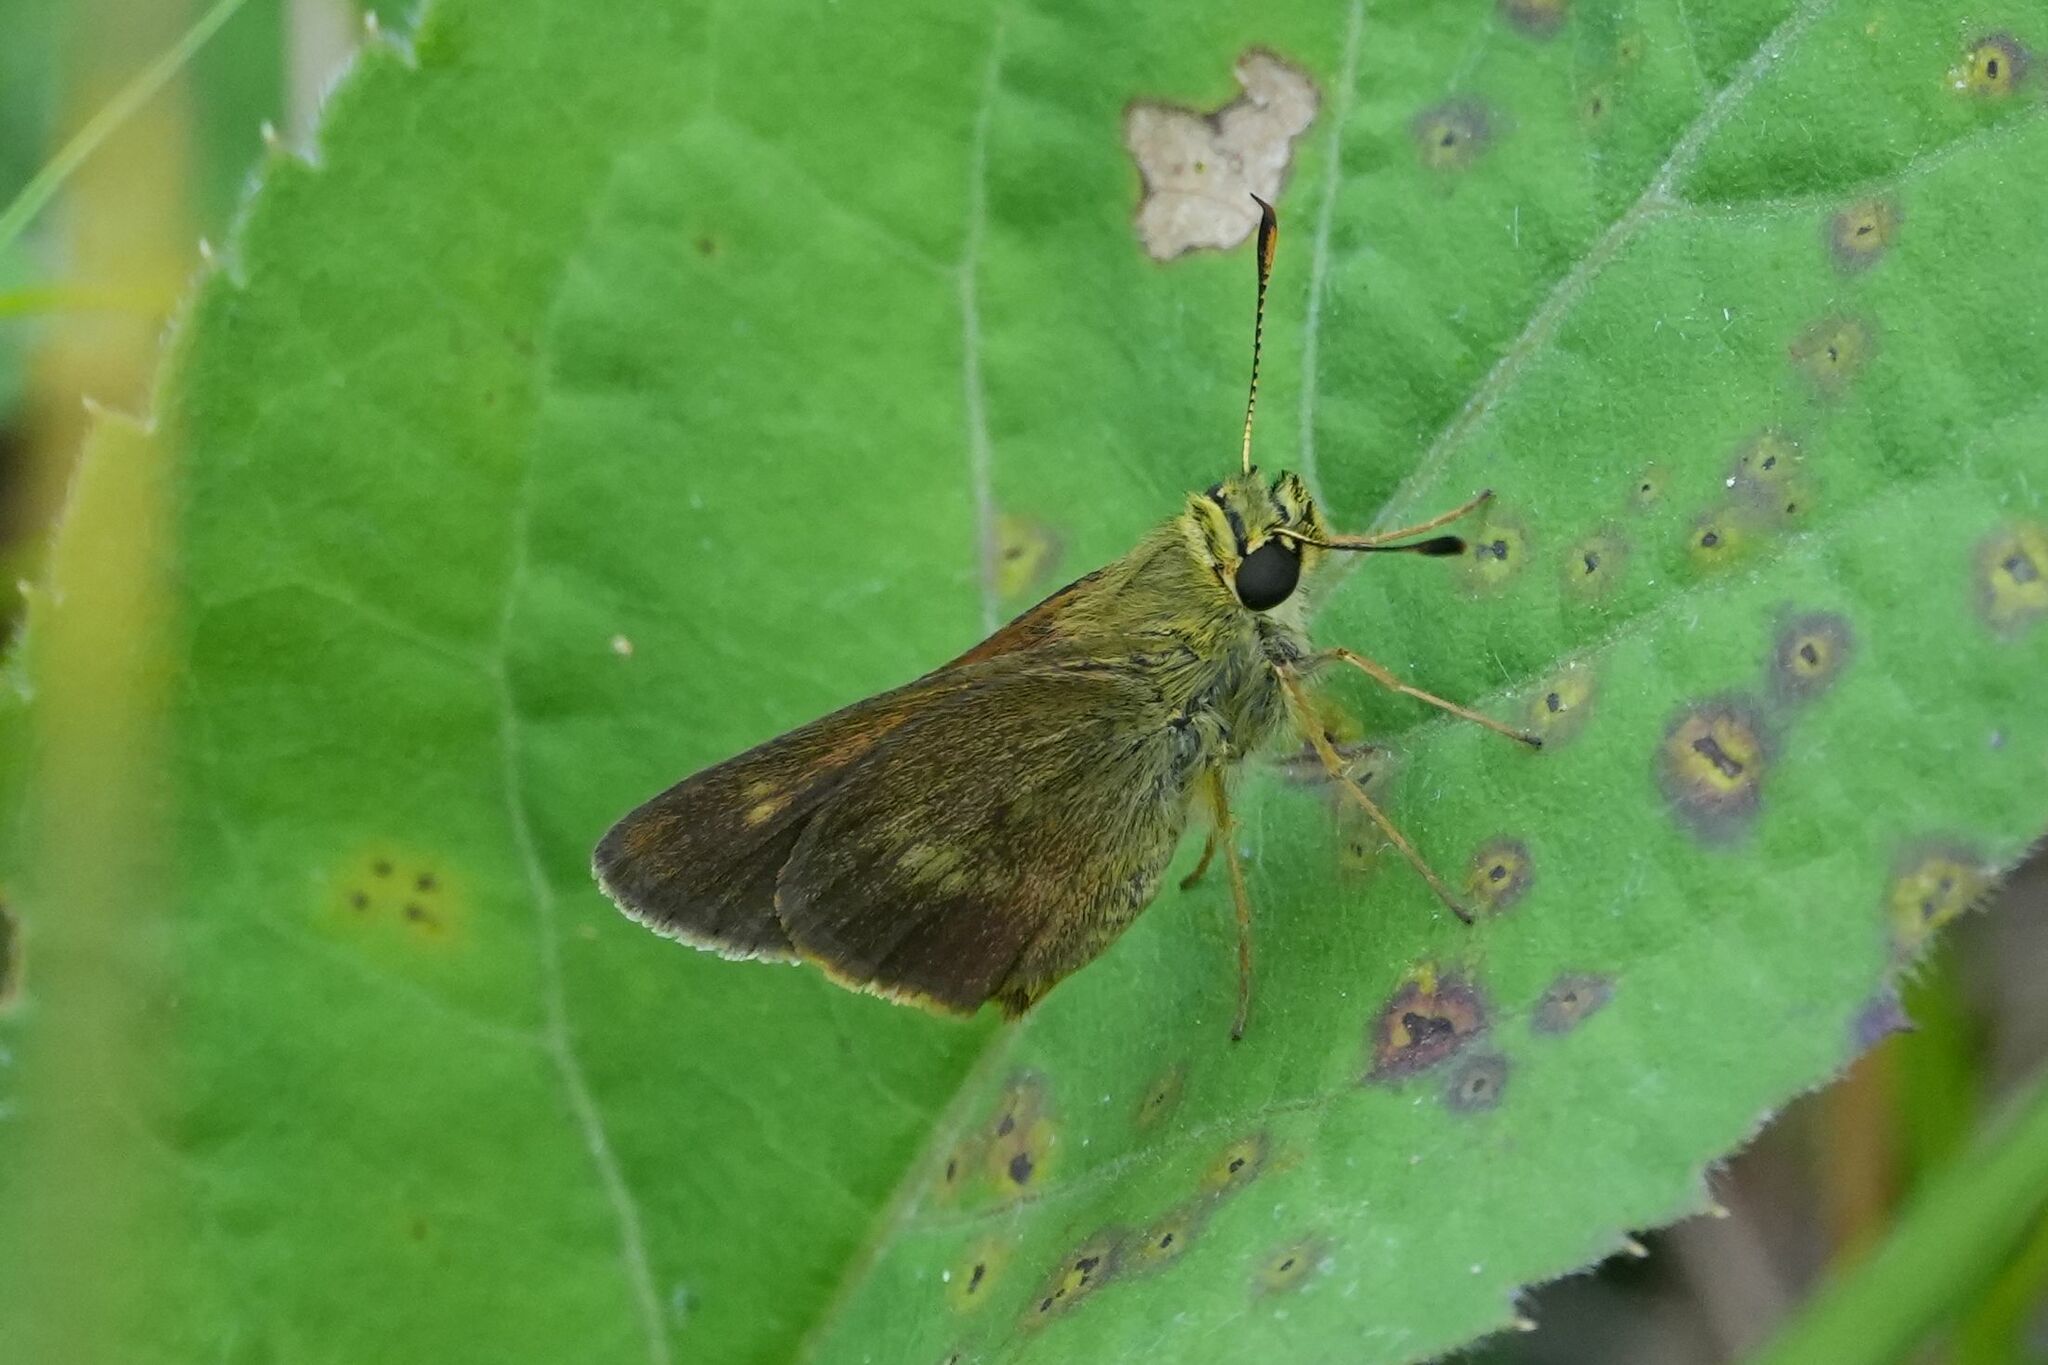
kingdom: Animalia
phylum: Arthropoda
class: Insecta
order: Lepidoptera
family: Hesperiidae
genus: Polites
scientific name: Polites egeremet
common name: Northern broken-dash
